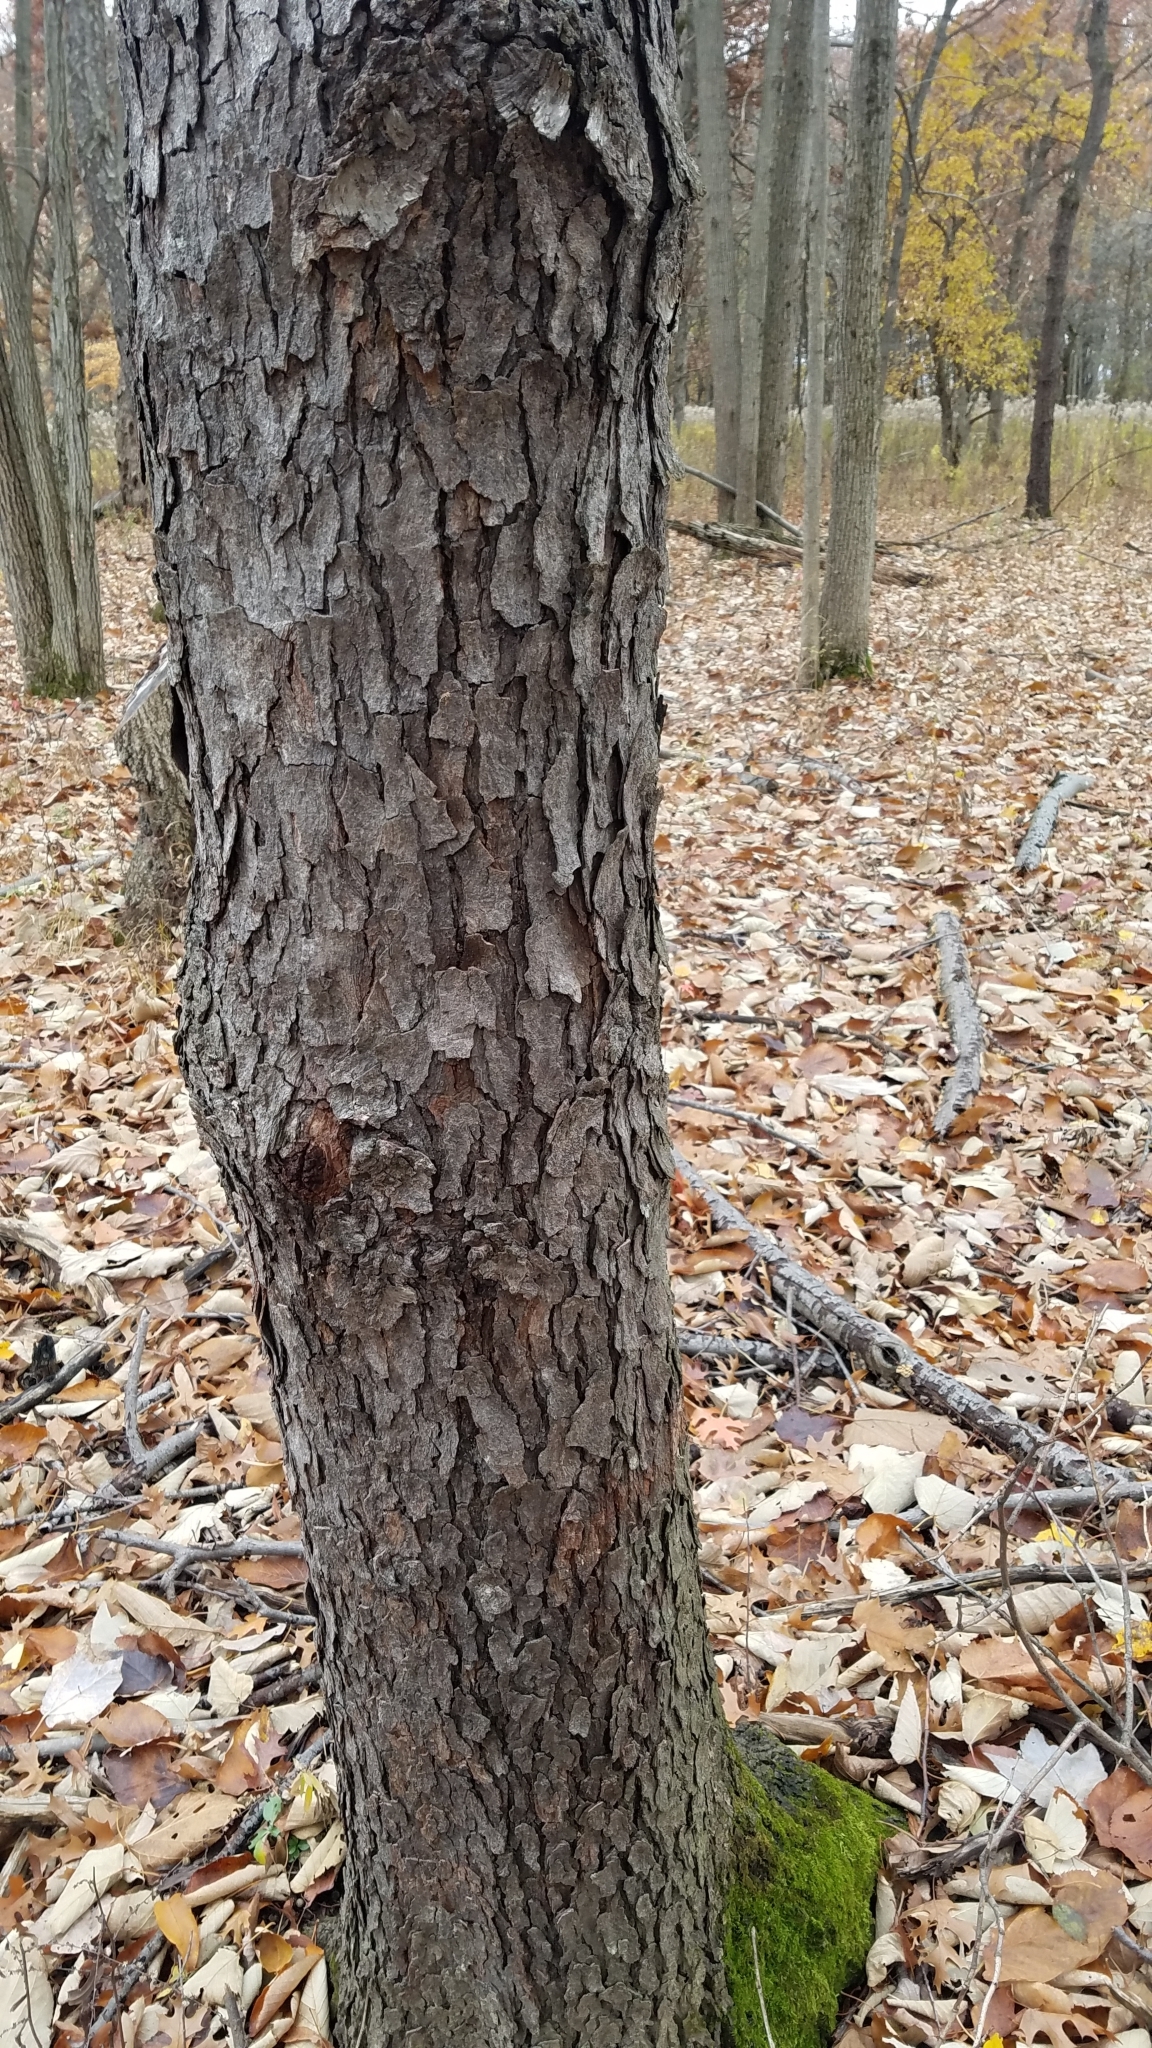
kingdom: Plantae
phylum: Tracheophyta
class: Magnoliopsida
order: Rosales
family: Rosaceae
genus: Prunus
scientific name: Prunus serotina
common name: Black cherry
